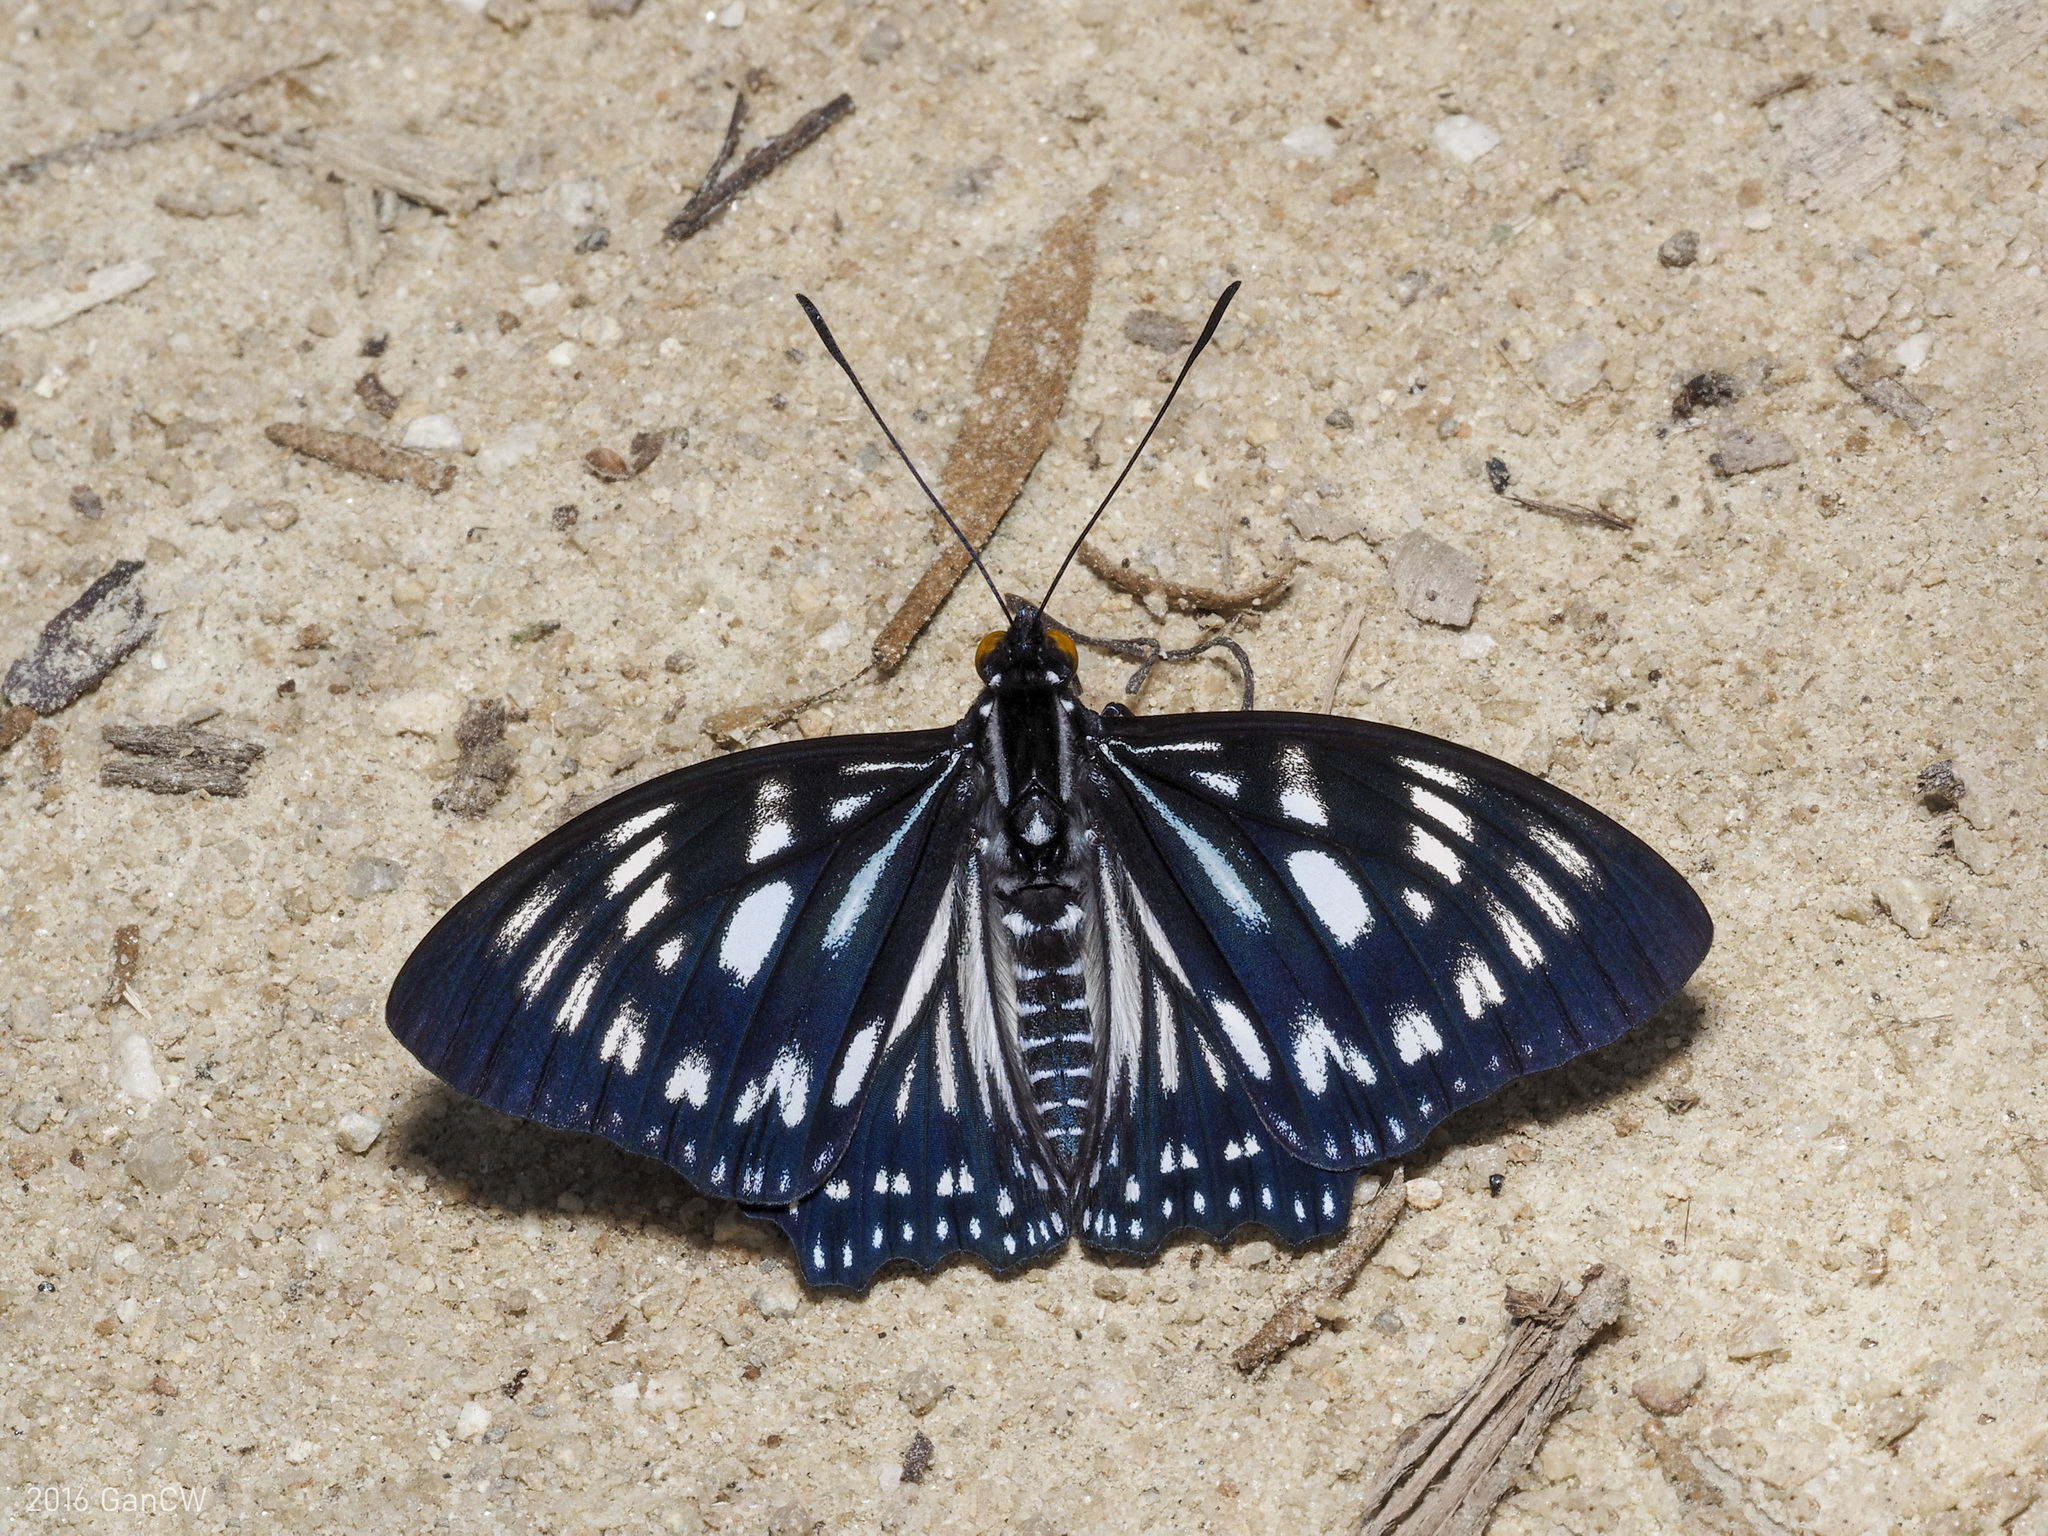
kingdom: Animalia
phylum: Arthropoda
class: Insecta
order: Lepidoptera
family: Nymphalidae
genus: Euripus
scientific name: Euripus nyctelius
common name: Courtesan
